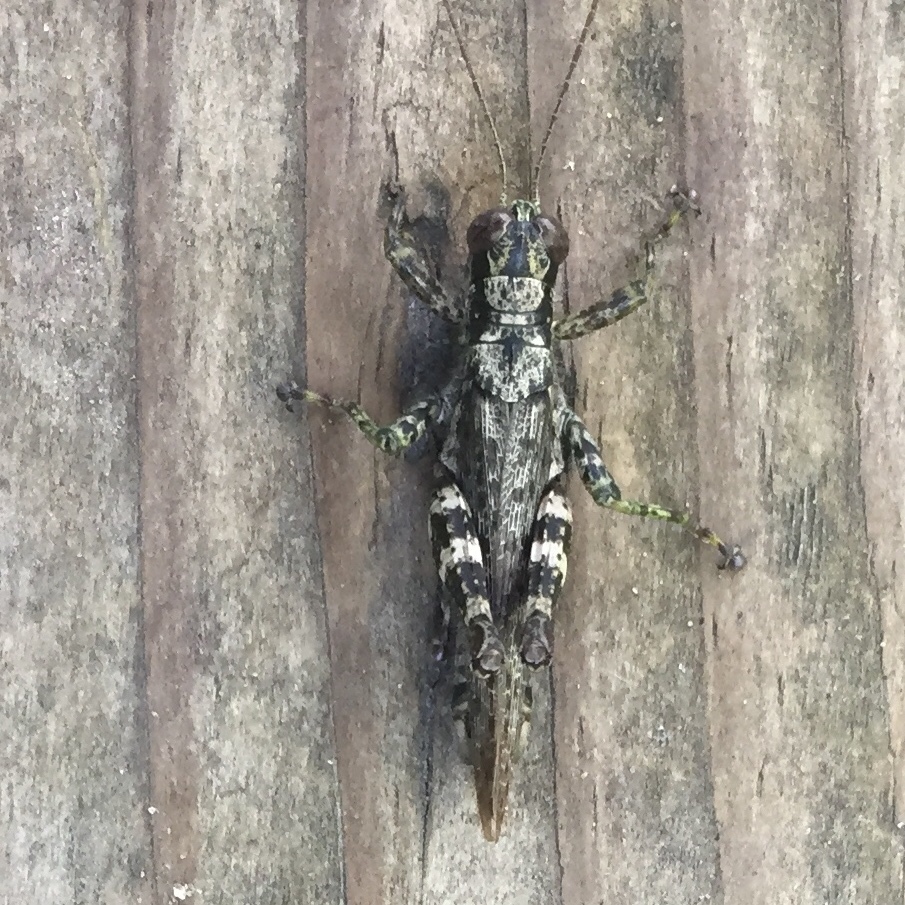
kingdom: Animalia
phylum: Arthropoda
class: Insecta
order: Orthoptera
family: Acrididae
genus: Melanoplus
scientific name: Melanoplus punctulatus
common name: Pine-tree spur-throat grasshopper
